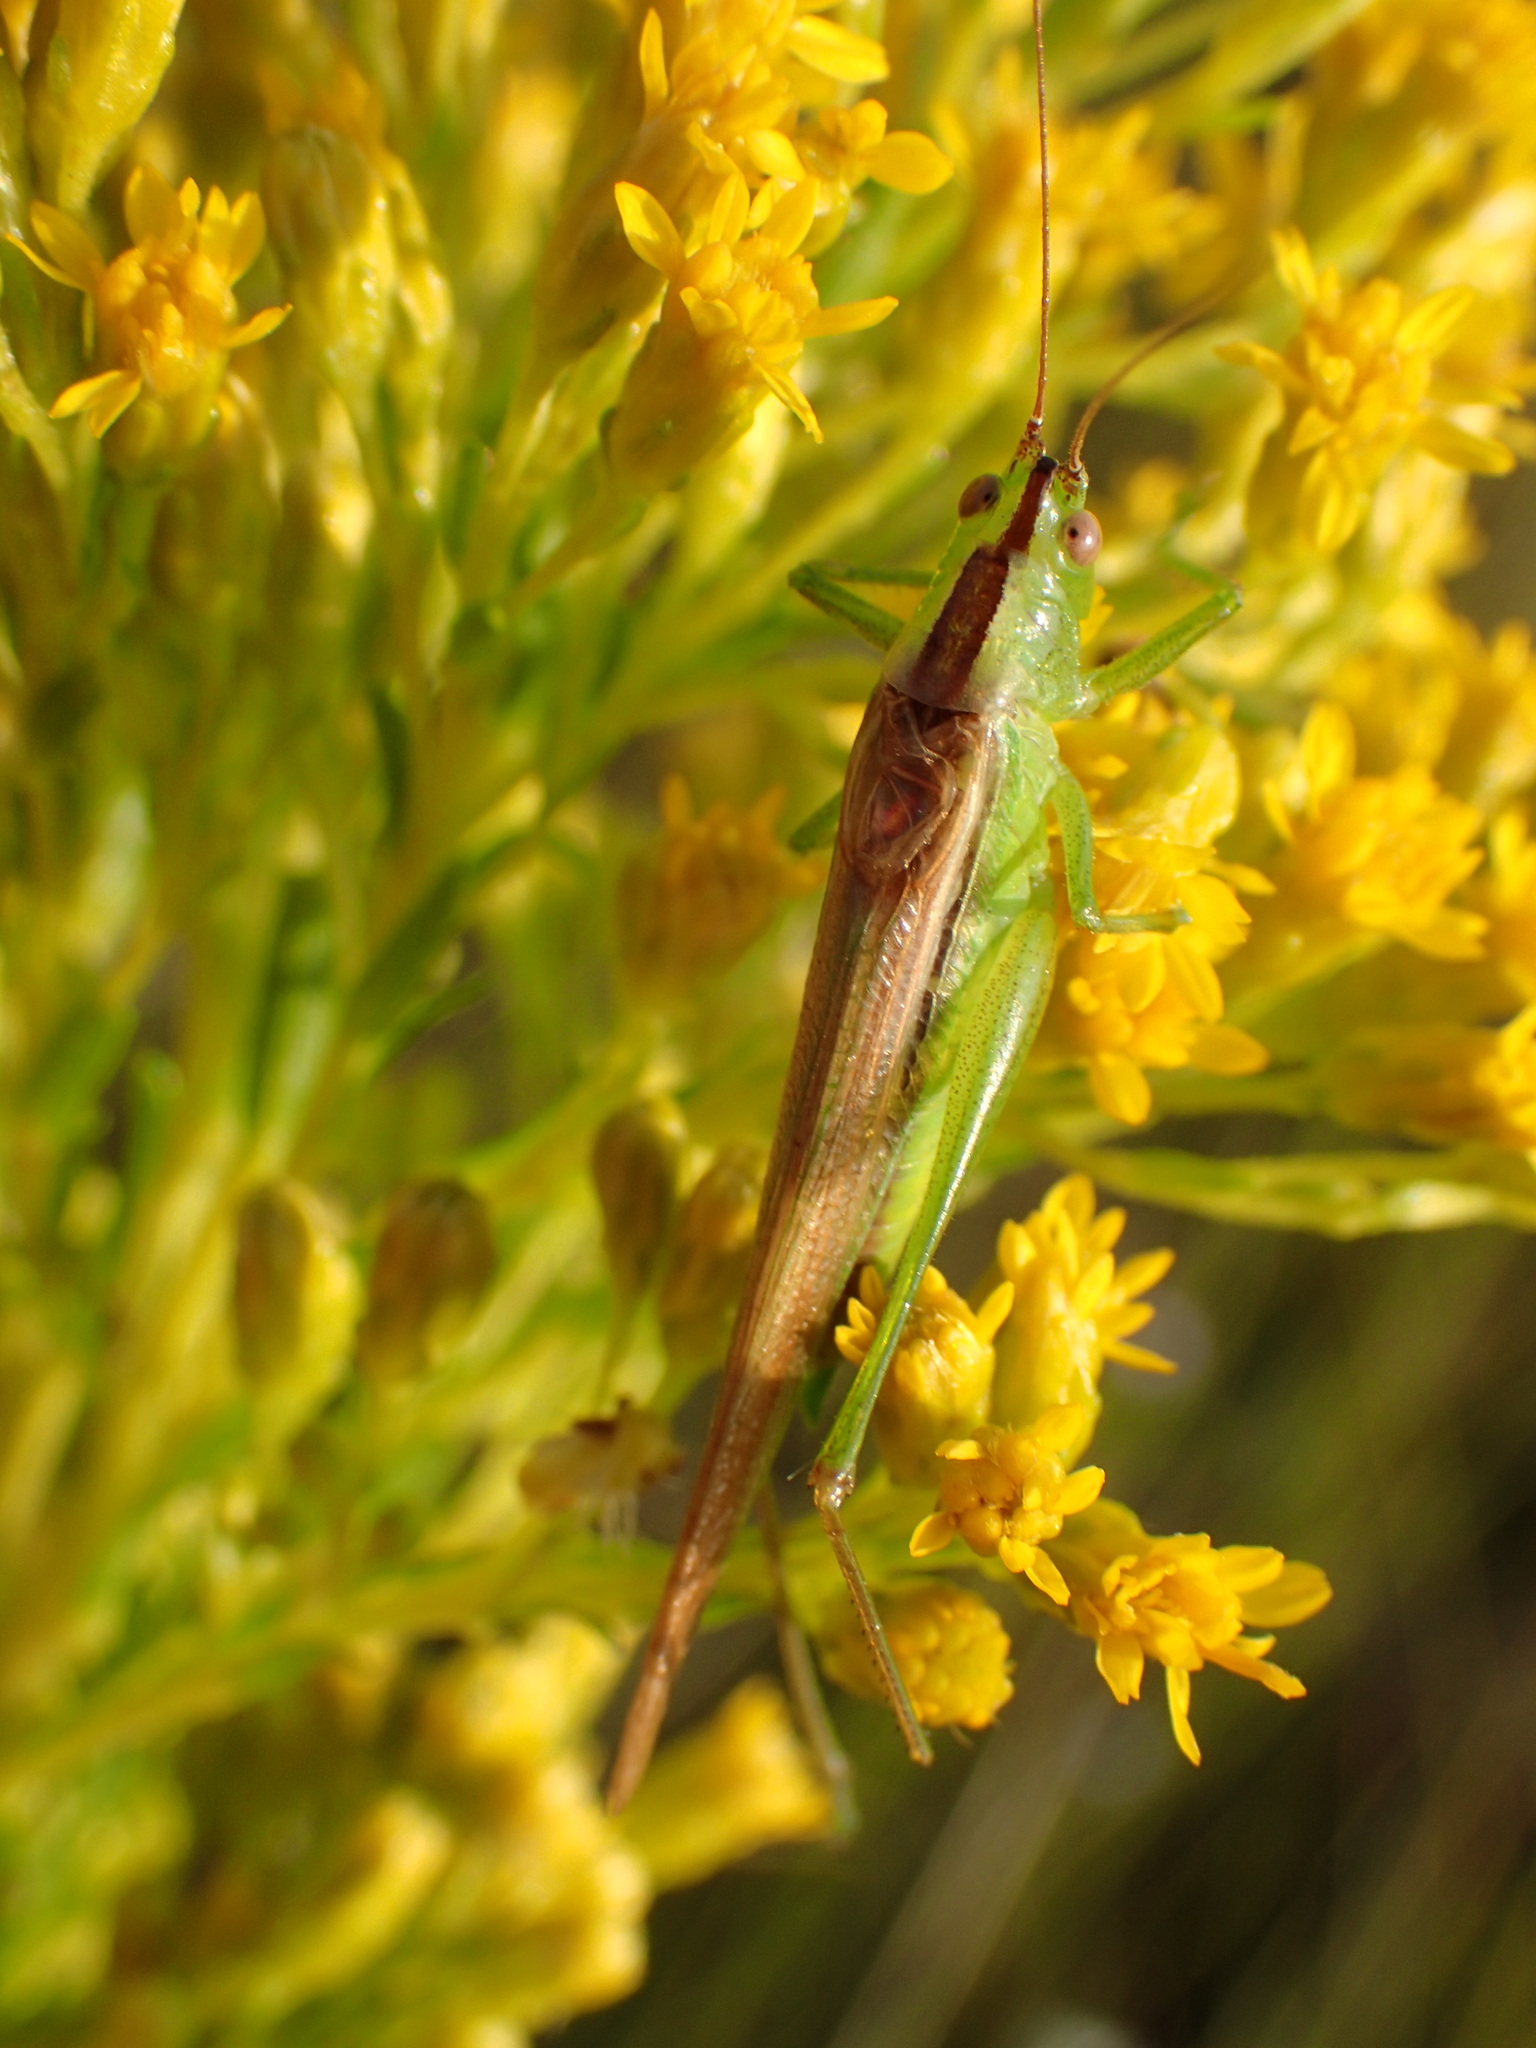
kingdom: Animalia
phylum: Arthropoda
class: Insecta
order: Orthoptera
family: Tettigoniidae
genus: Conocephalus
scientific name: Conocephalus fasciatus
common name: Slender meadow katydid
